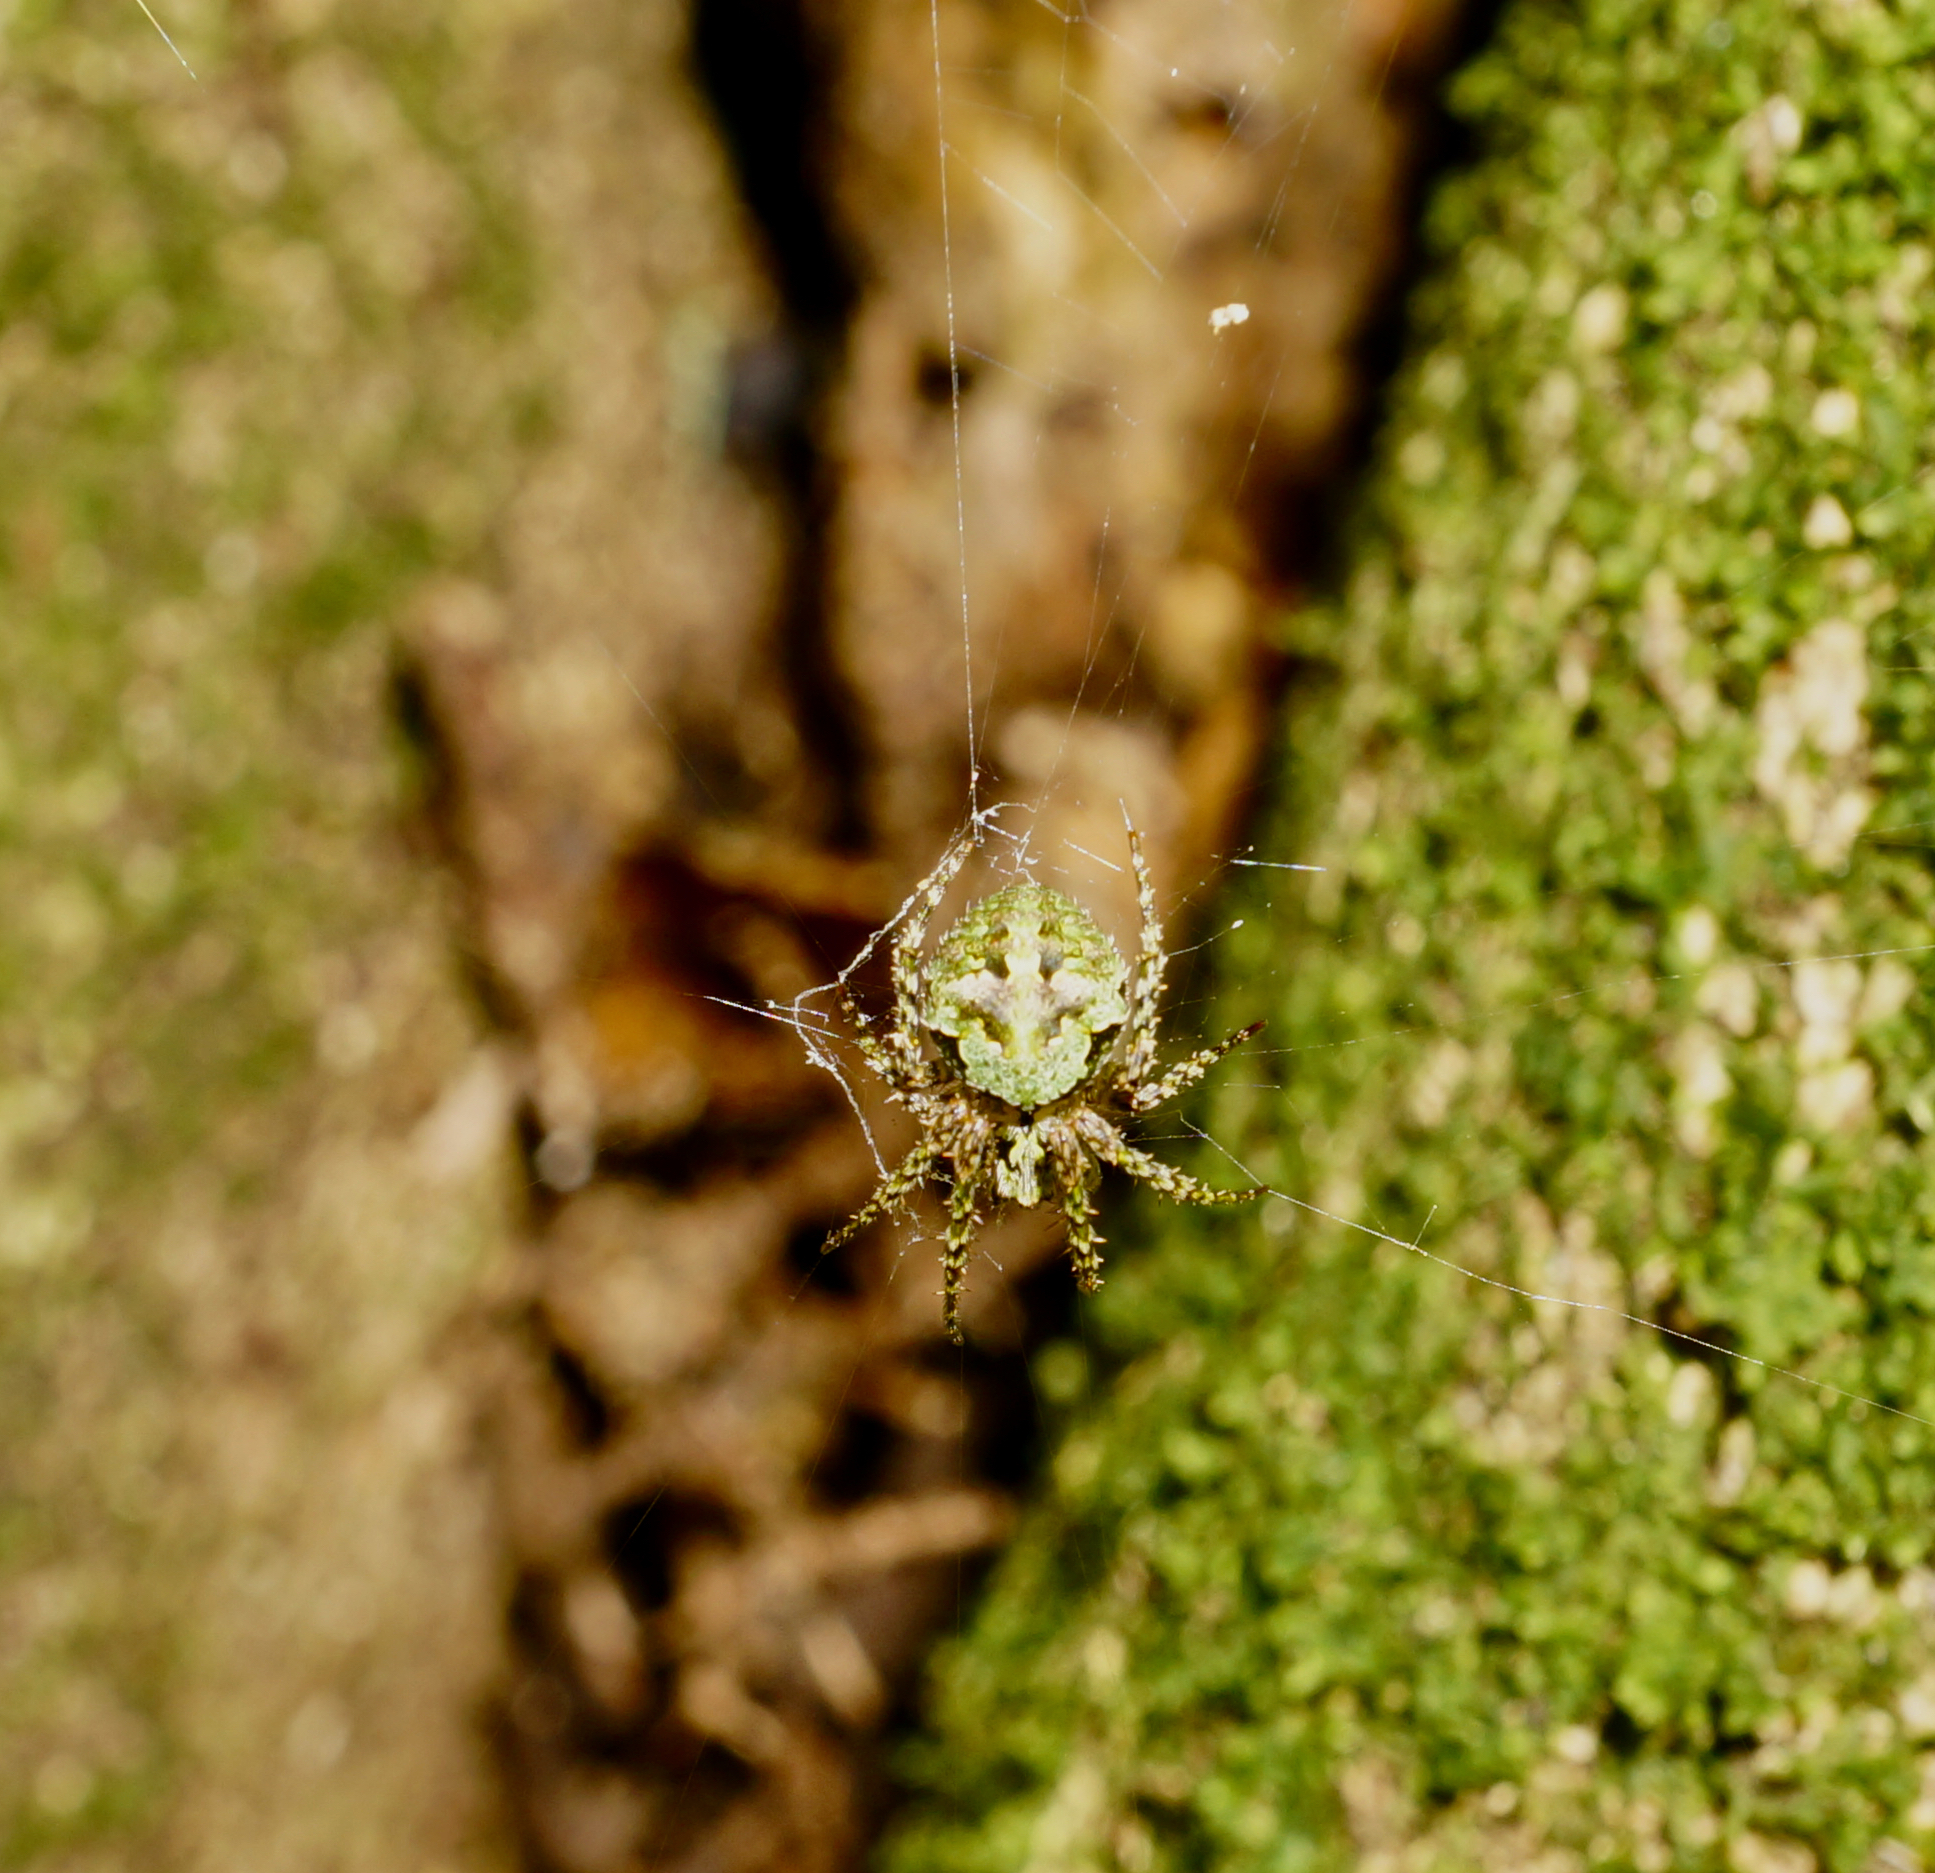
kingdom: Animalia
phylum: Arthropoda
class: Arachnida
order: Araneae
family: Araneidae
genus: Cryptaranea
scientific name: Cryptaranea atrihastula
